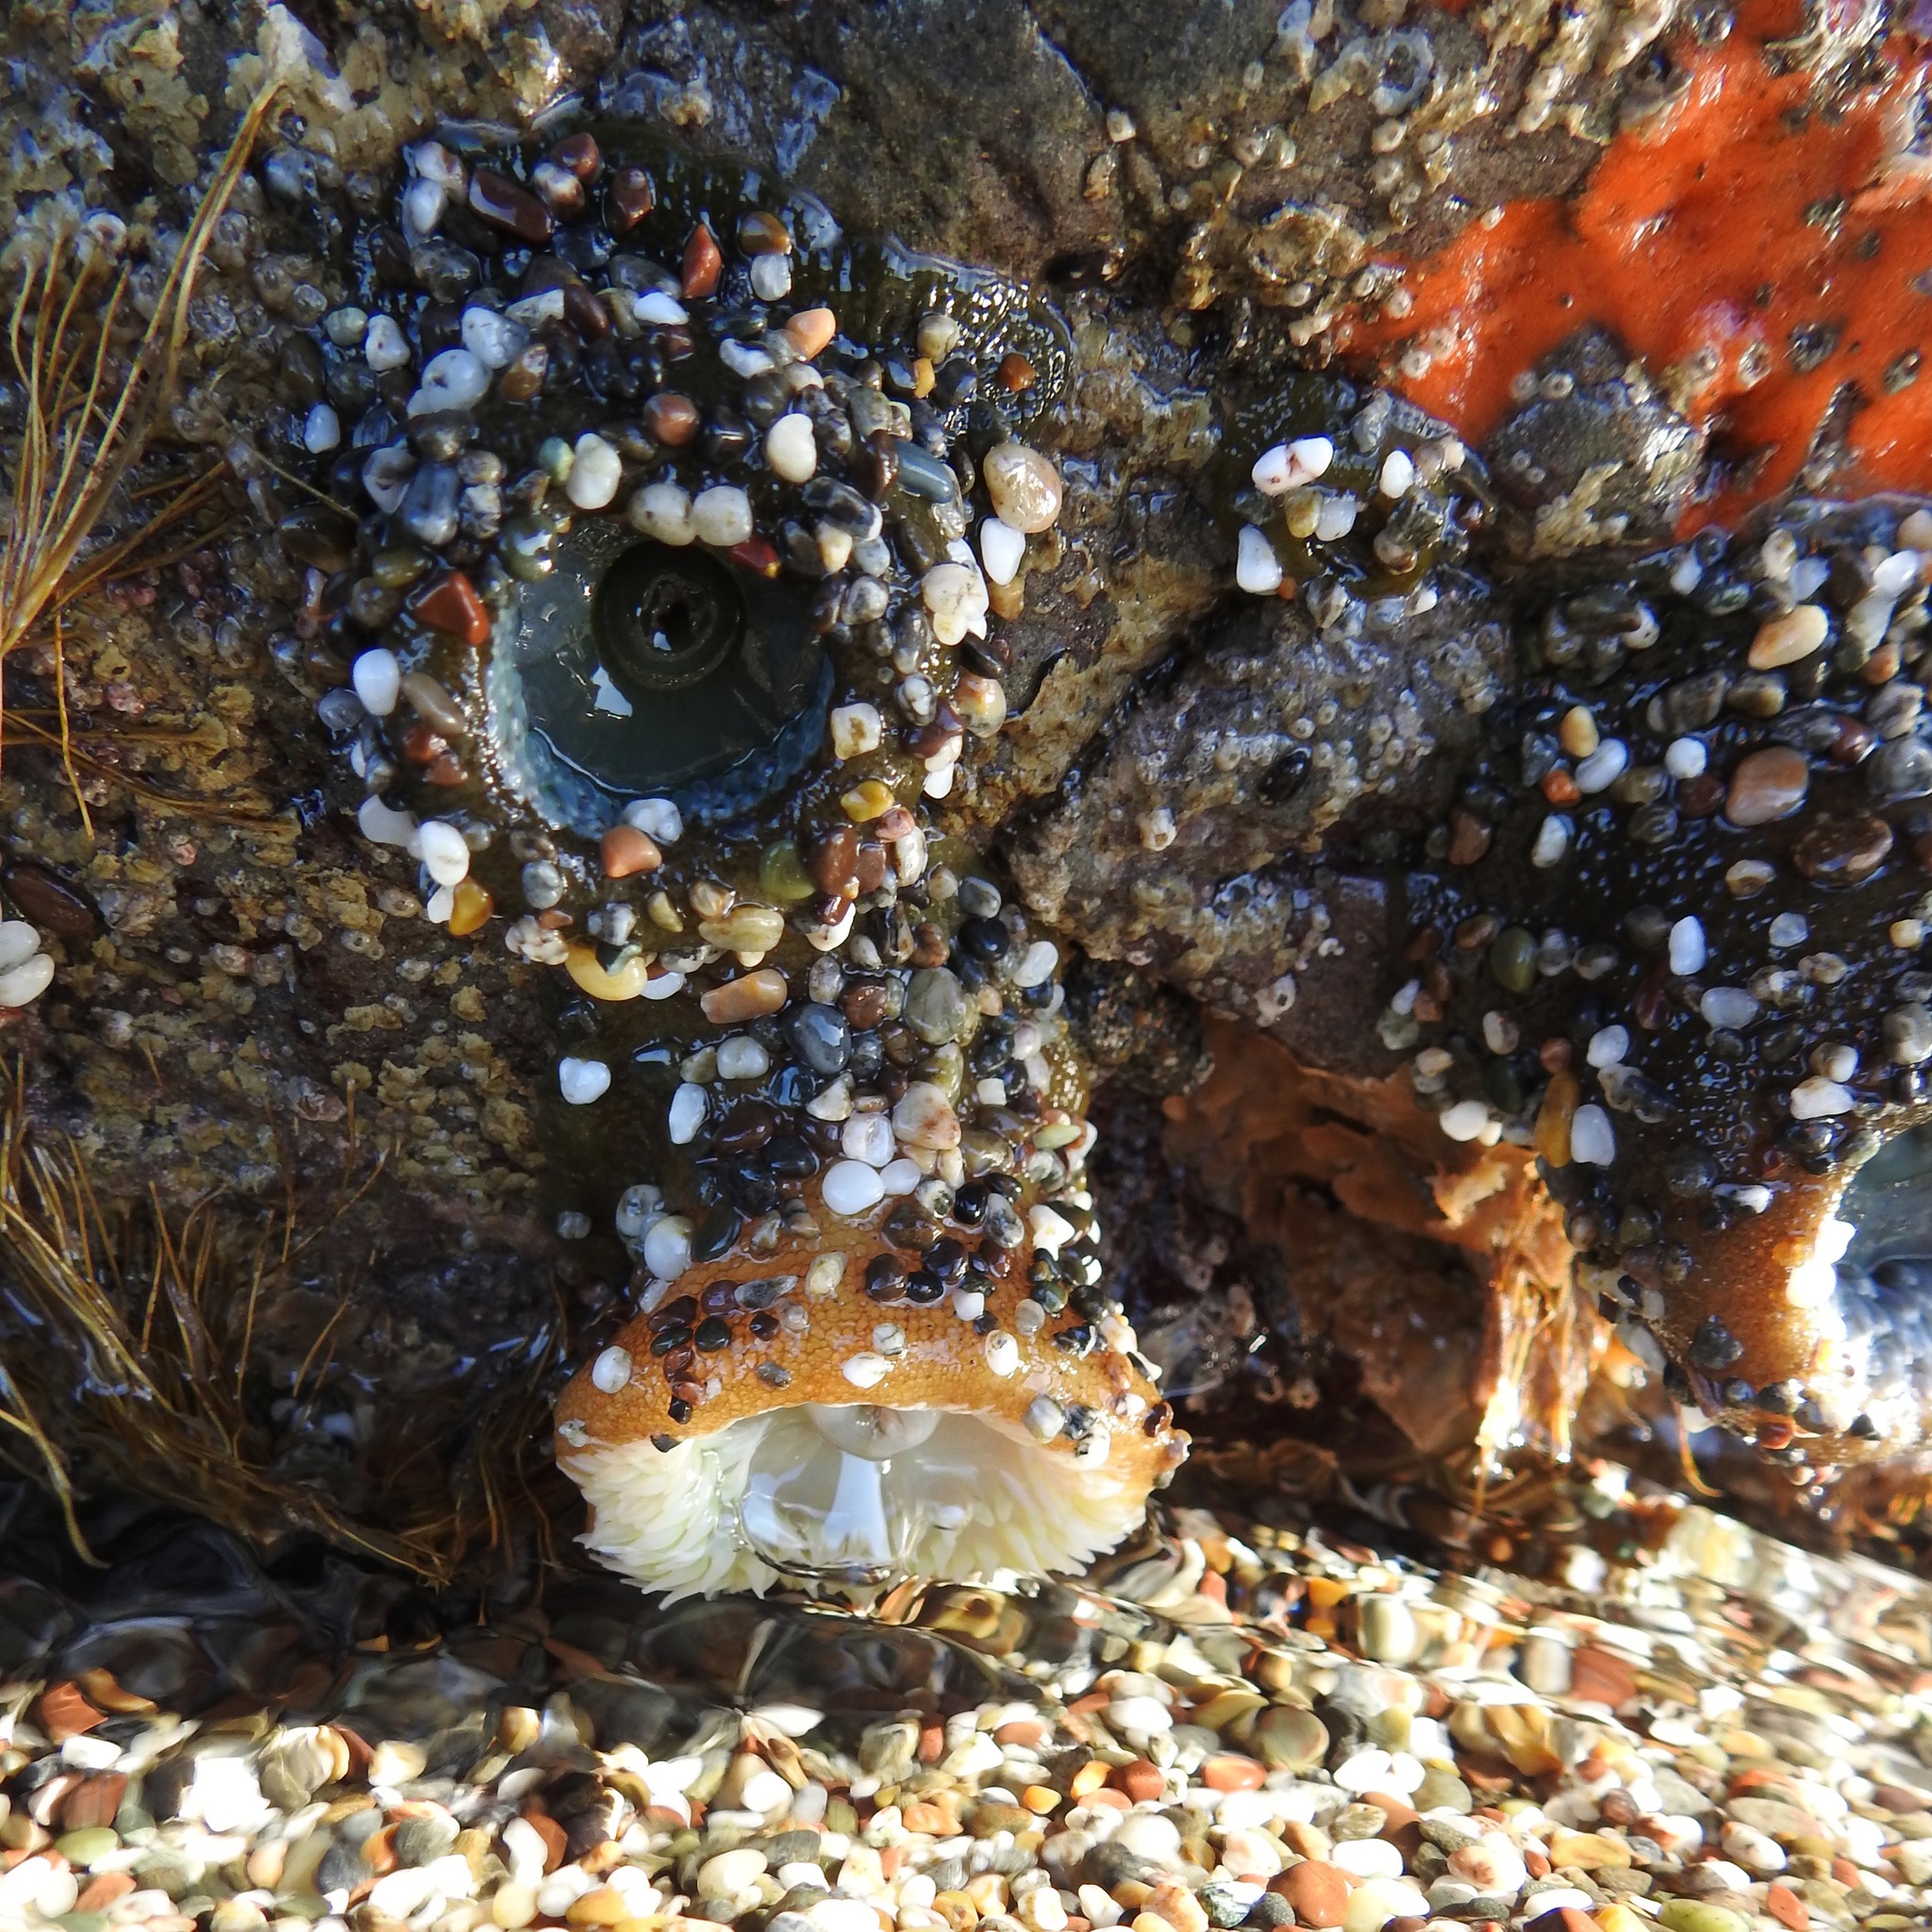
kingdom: Animalia
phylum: Cnidaria
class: Anthozoa
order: Actiniaria
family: Actiniidae
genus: Anthopleura
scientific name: Anthopleura xanthogrammica
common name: Giant green anemone
